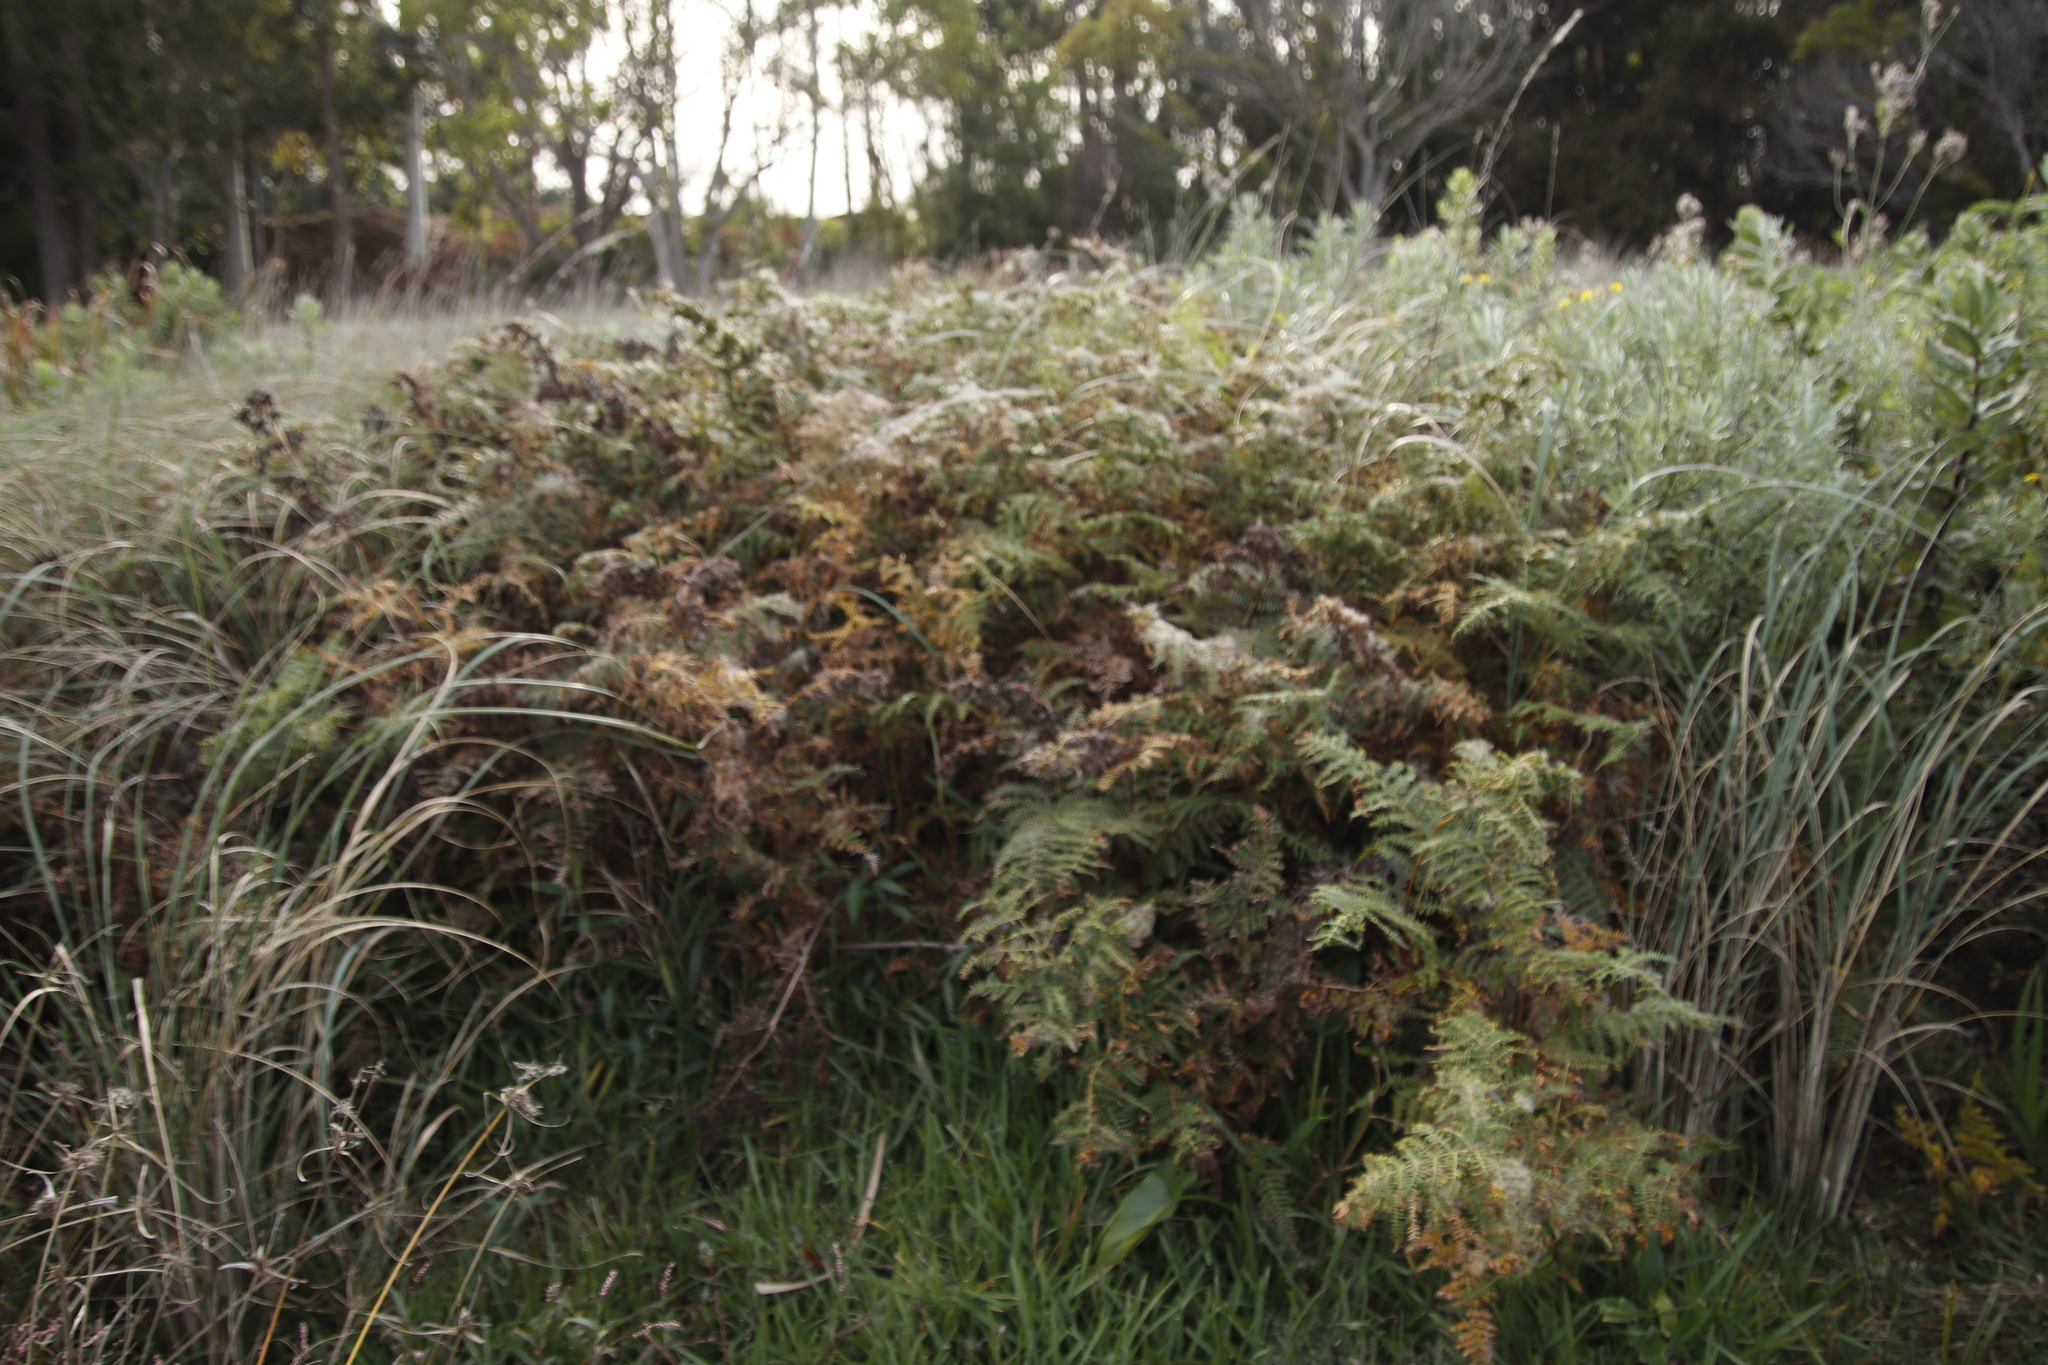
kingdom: Plantae
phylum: Tracheophyta
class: Polypodiopsida
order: Polypodiales
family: Dennstaedtiaceae
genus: Pteridium
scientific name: Pteridium aquilinum
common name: Bracken
